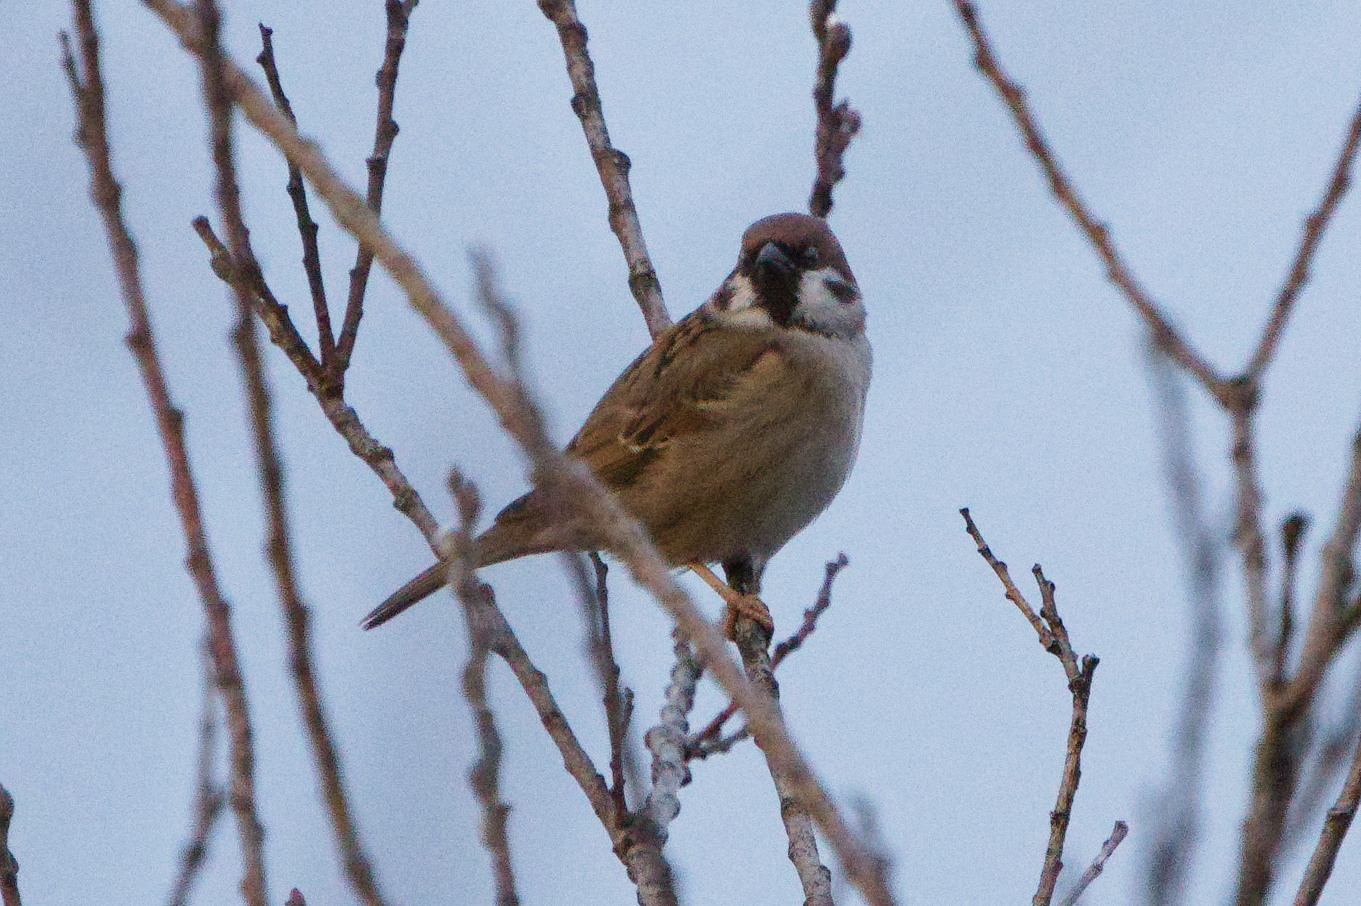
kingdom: Animalia
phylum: Chordata
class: Aves
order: Passeriformes
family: Passeridae
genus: Passer
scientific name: Passer montanus
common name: Eurasian tree sparrow
